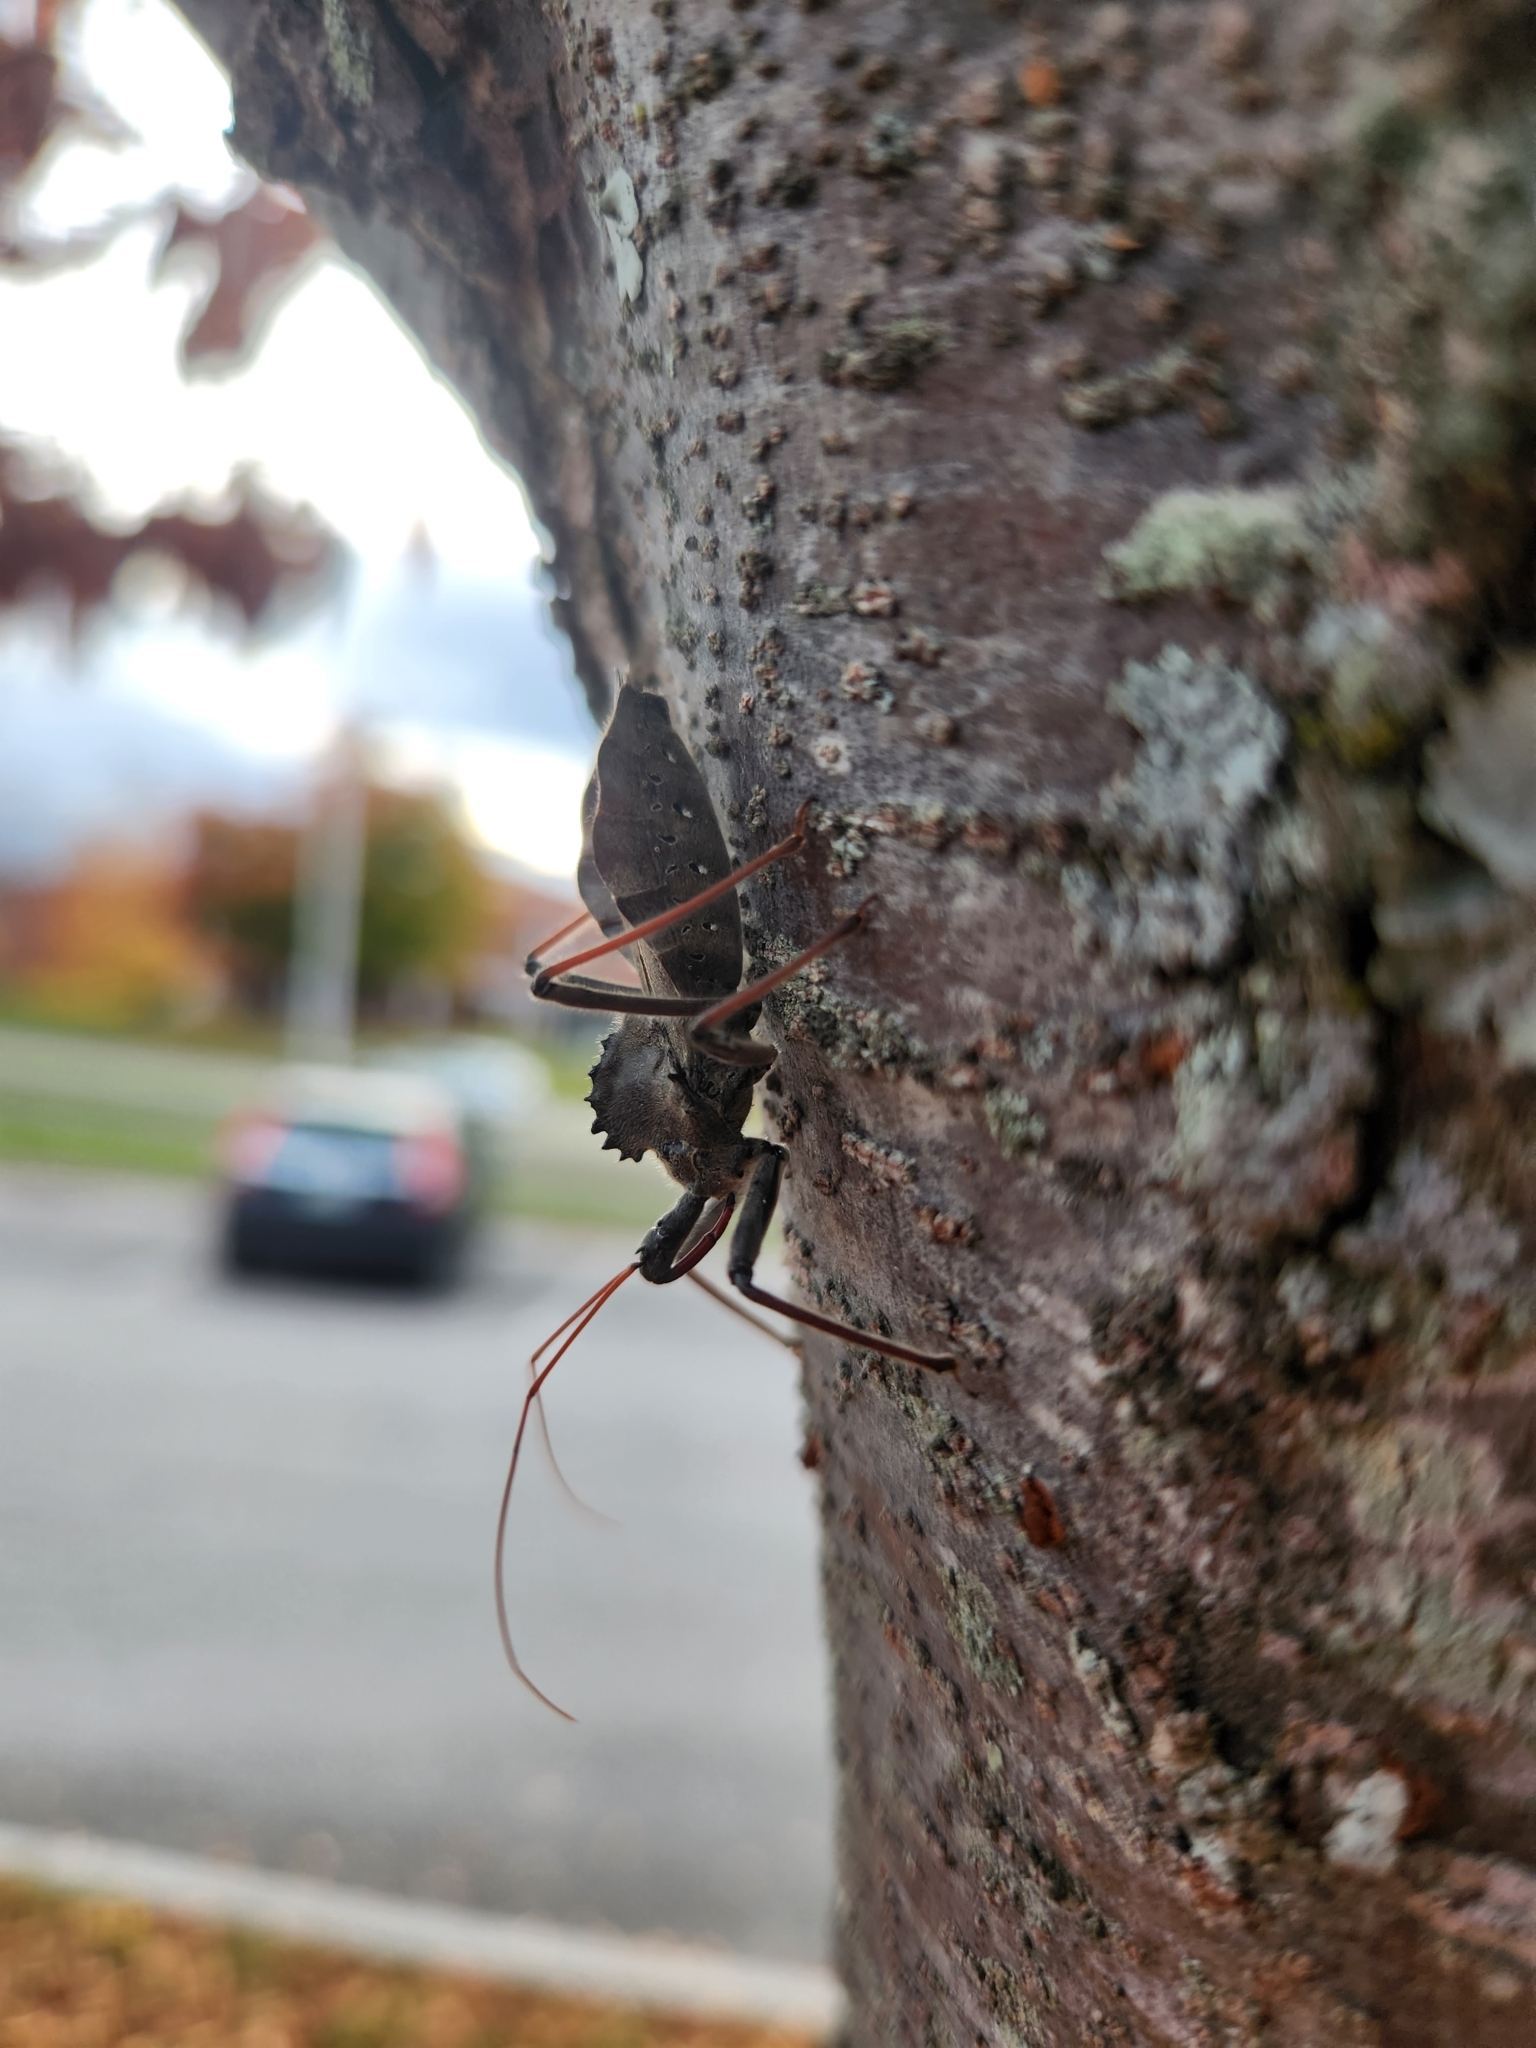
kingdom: Animalia
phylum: Arthropoda
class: Insecta
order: Hemiptera
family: Reduviidae
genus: Arilus
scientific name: Arilus cristatus
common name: North american wheel bug
